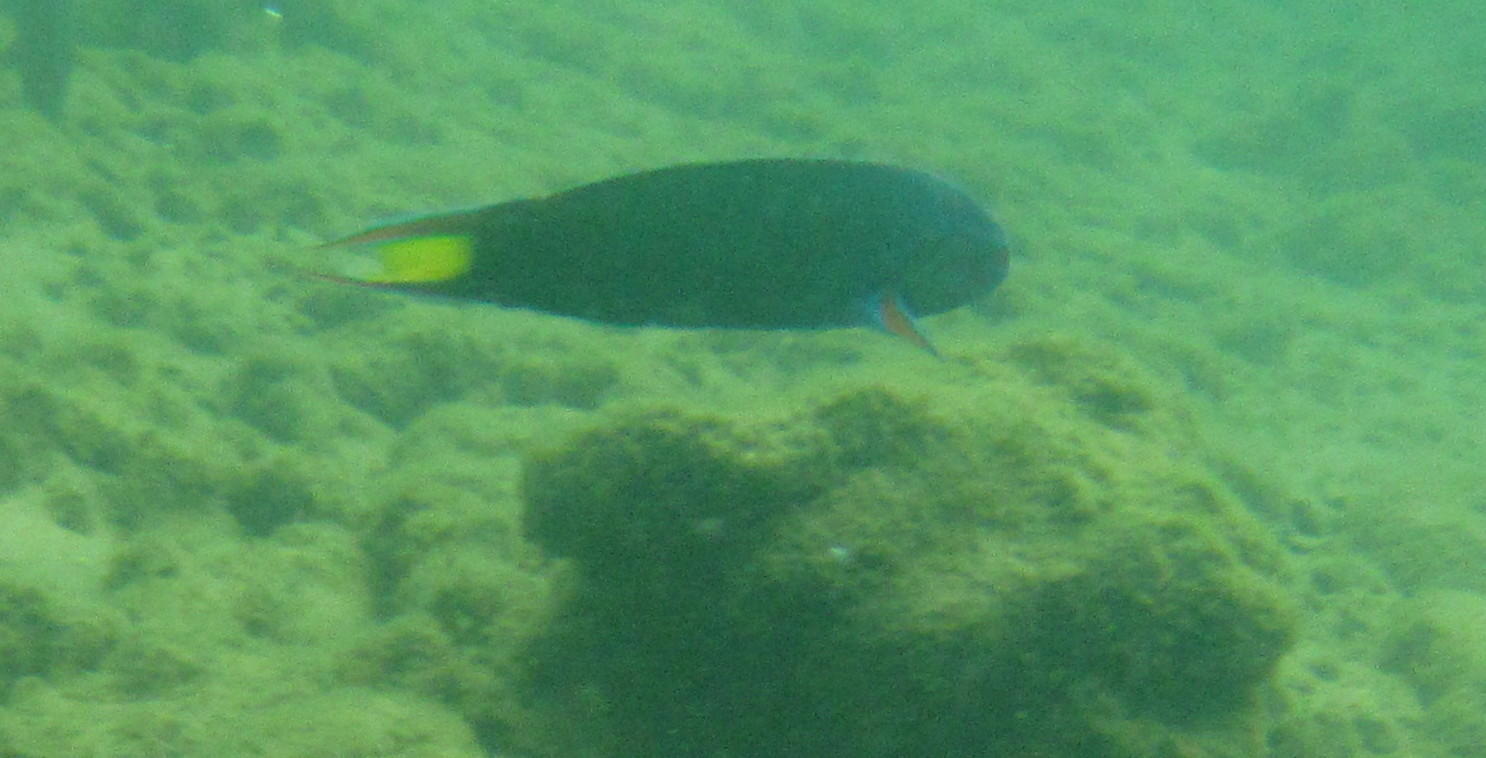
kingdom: Animalia
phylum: Chordata
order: Perciformes
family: Labridae
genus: Thalassoma
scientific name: Thalassoma lunare
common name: Blue wrasse
